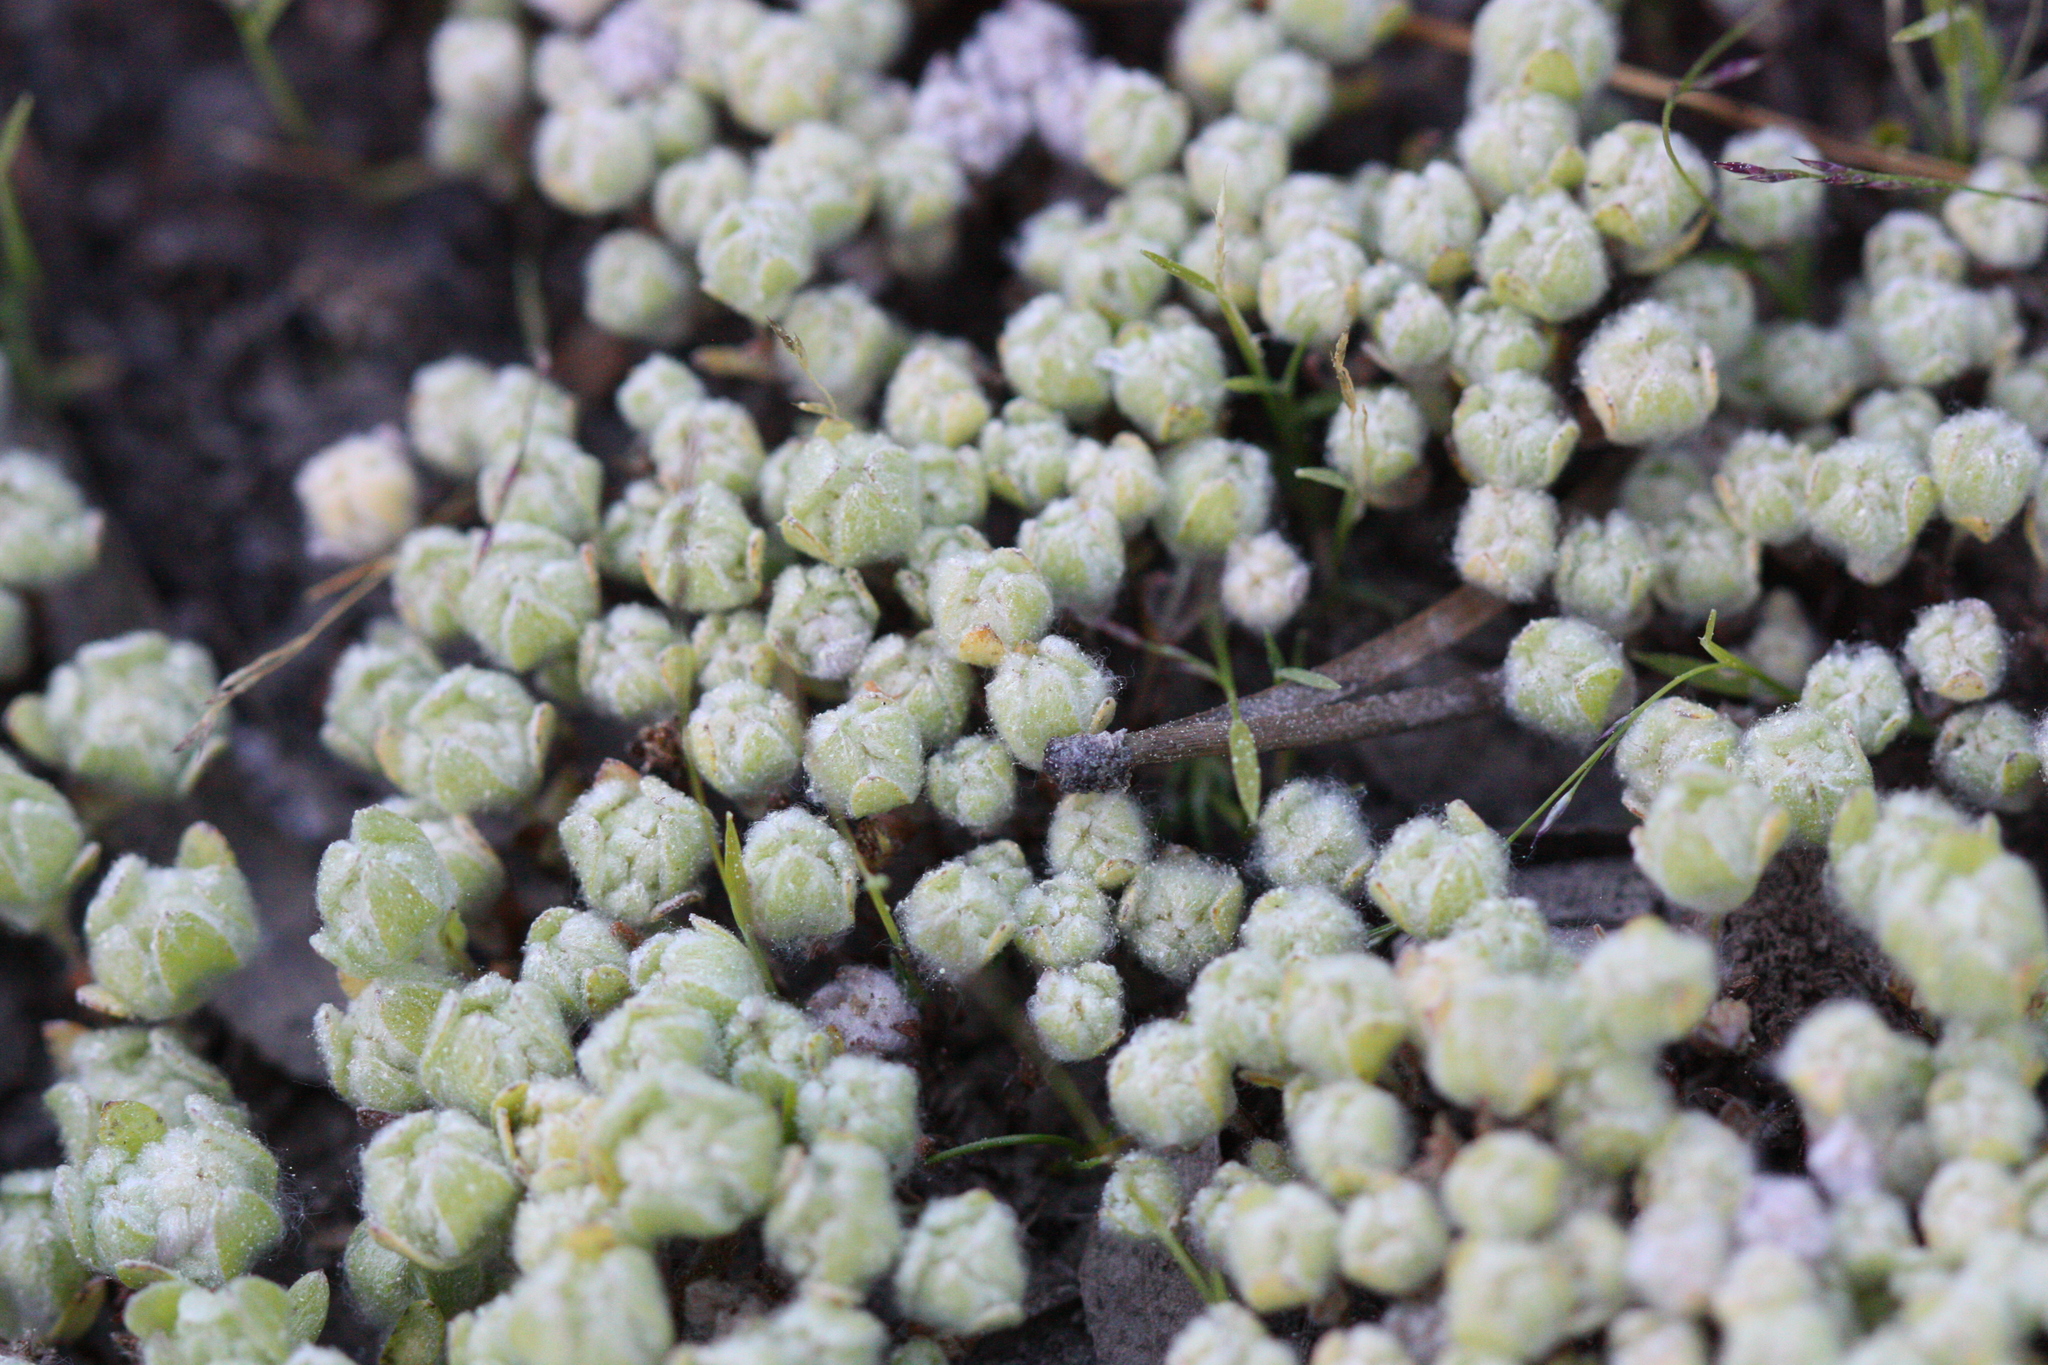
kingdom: Plantae
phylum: Tracheophyta
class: Magnoliopsida
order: Asterales
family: Asteraceae
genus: Psilocarphus
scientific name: Psilocarphus brevissimus
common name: Dwarf woollyheads
